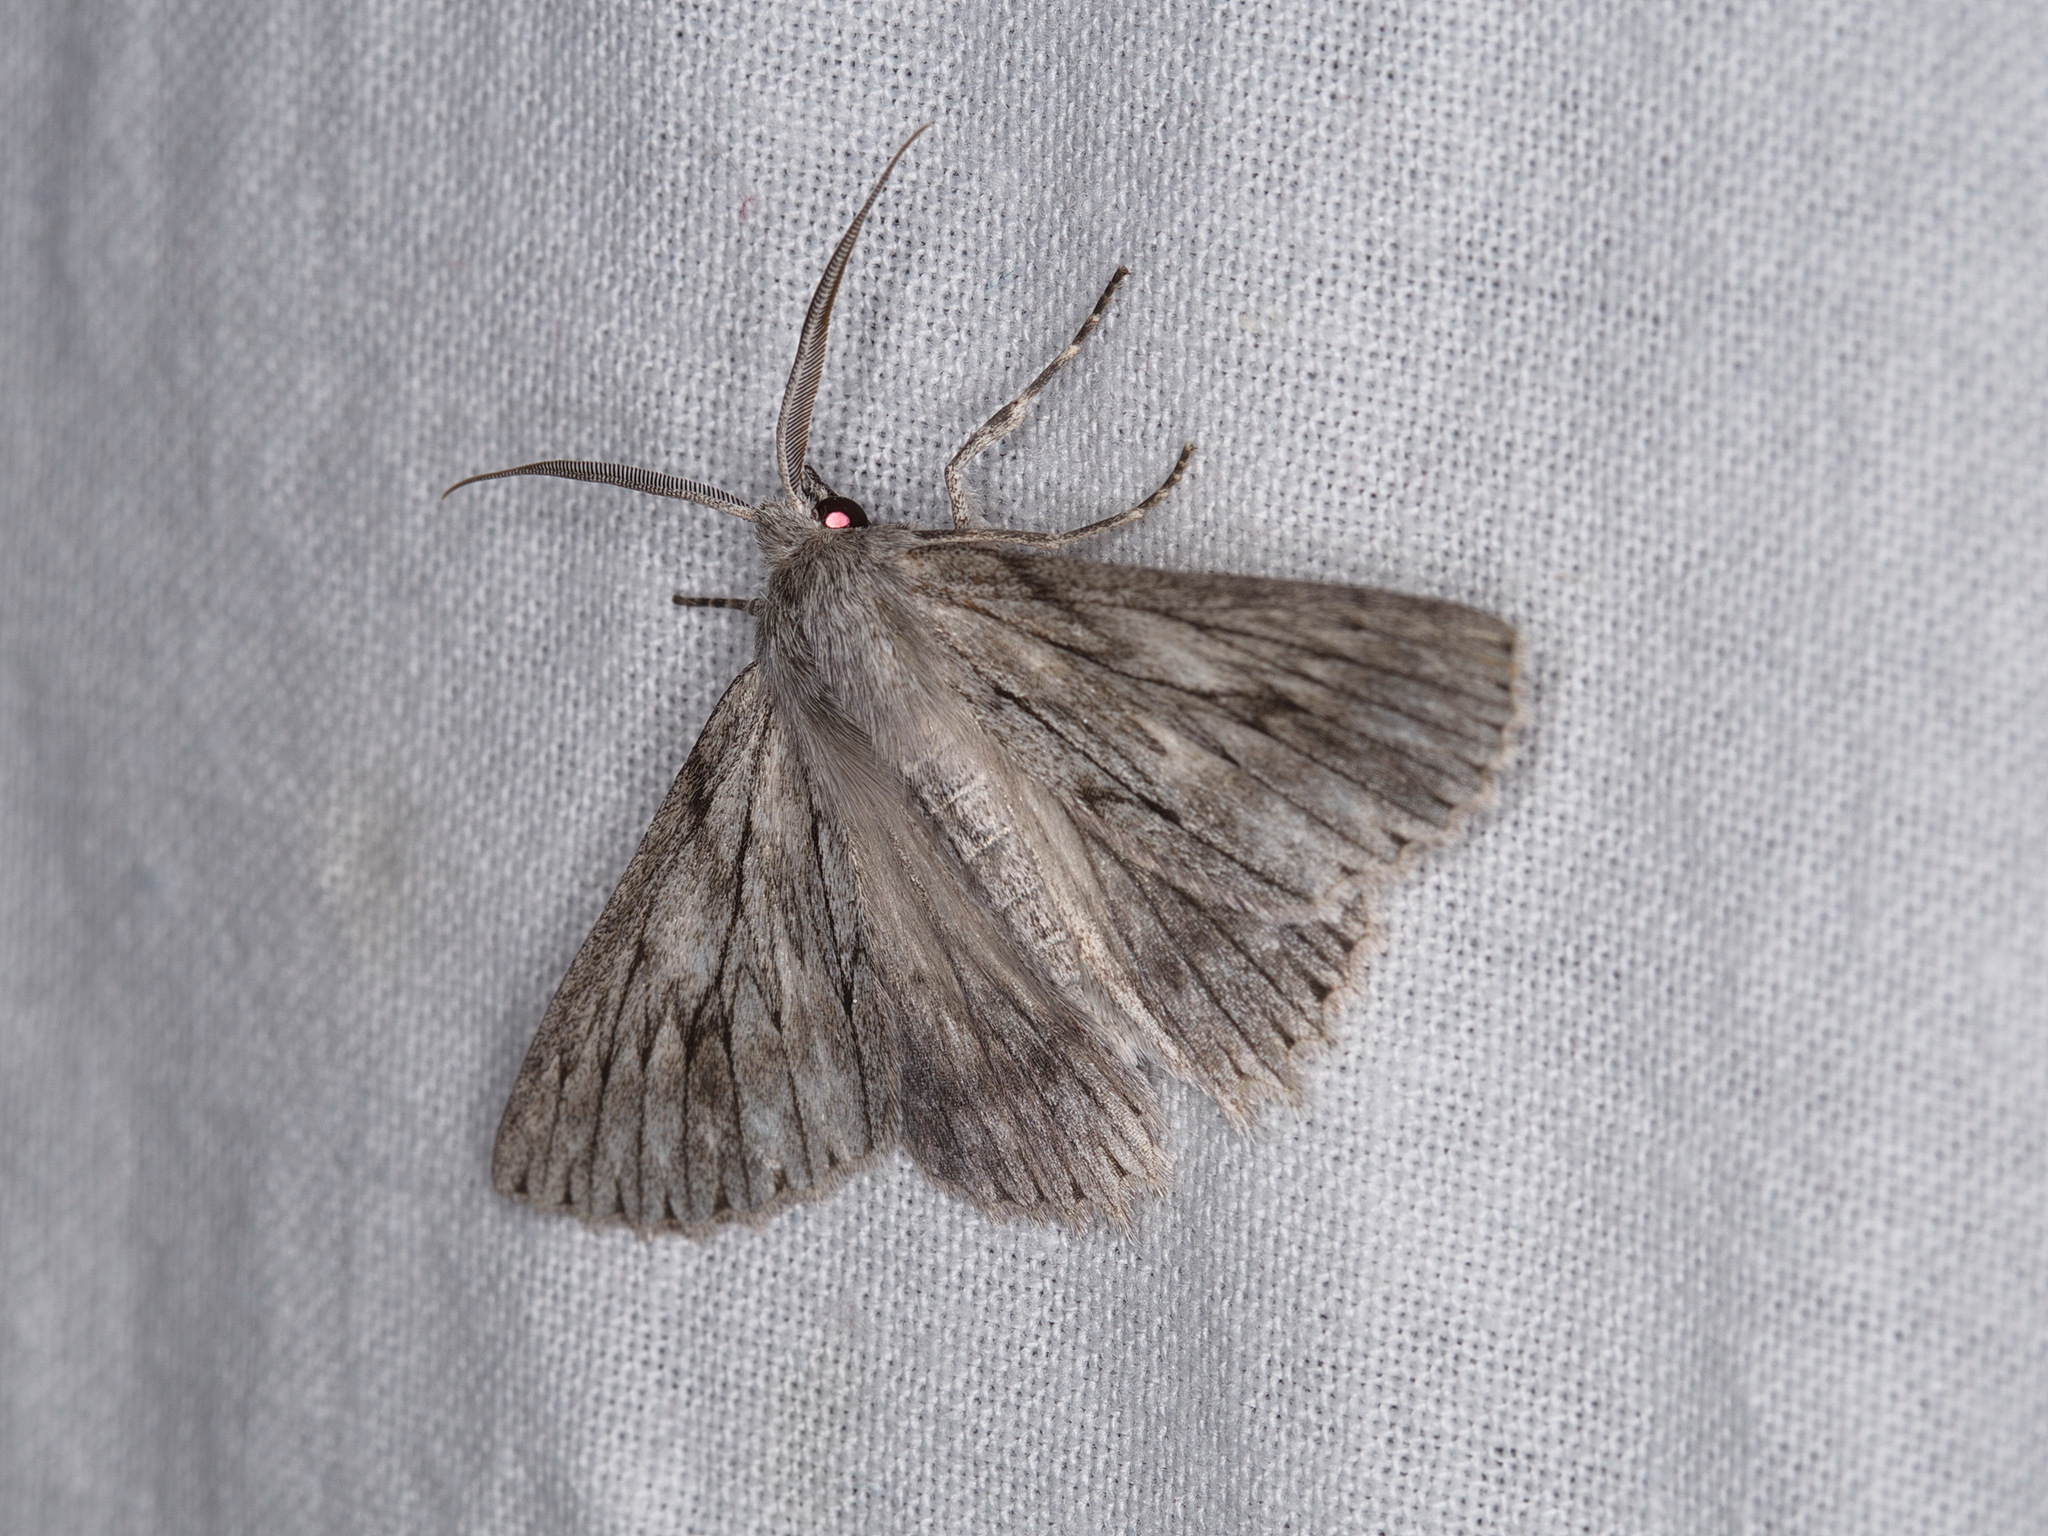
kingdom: Animalia
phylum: Arthropoda
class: Insecta
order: Lepidoptera
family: Geometridae
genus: Cyneoterpna
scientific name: Cyneoterpna wilsoni
